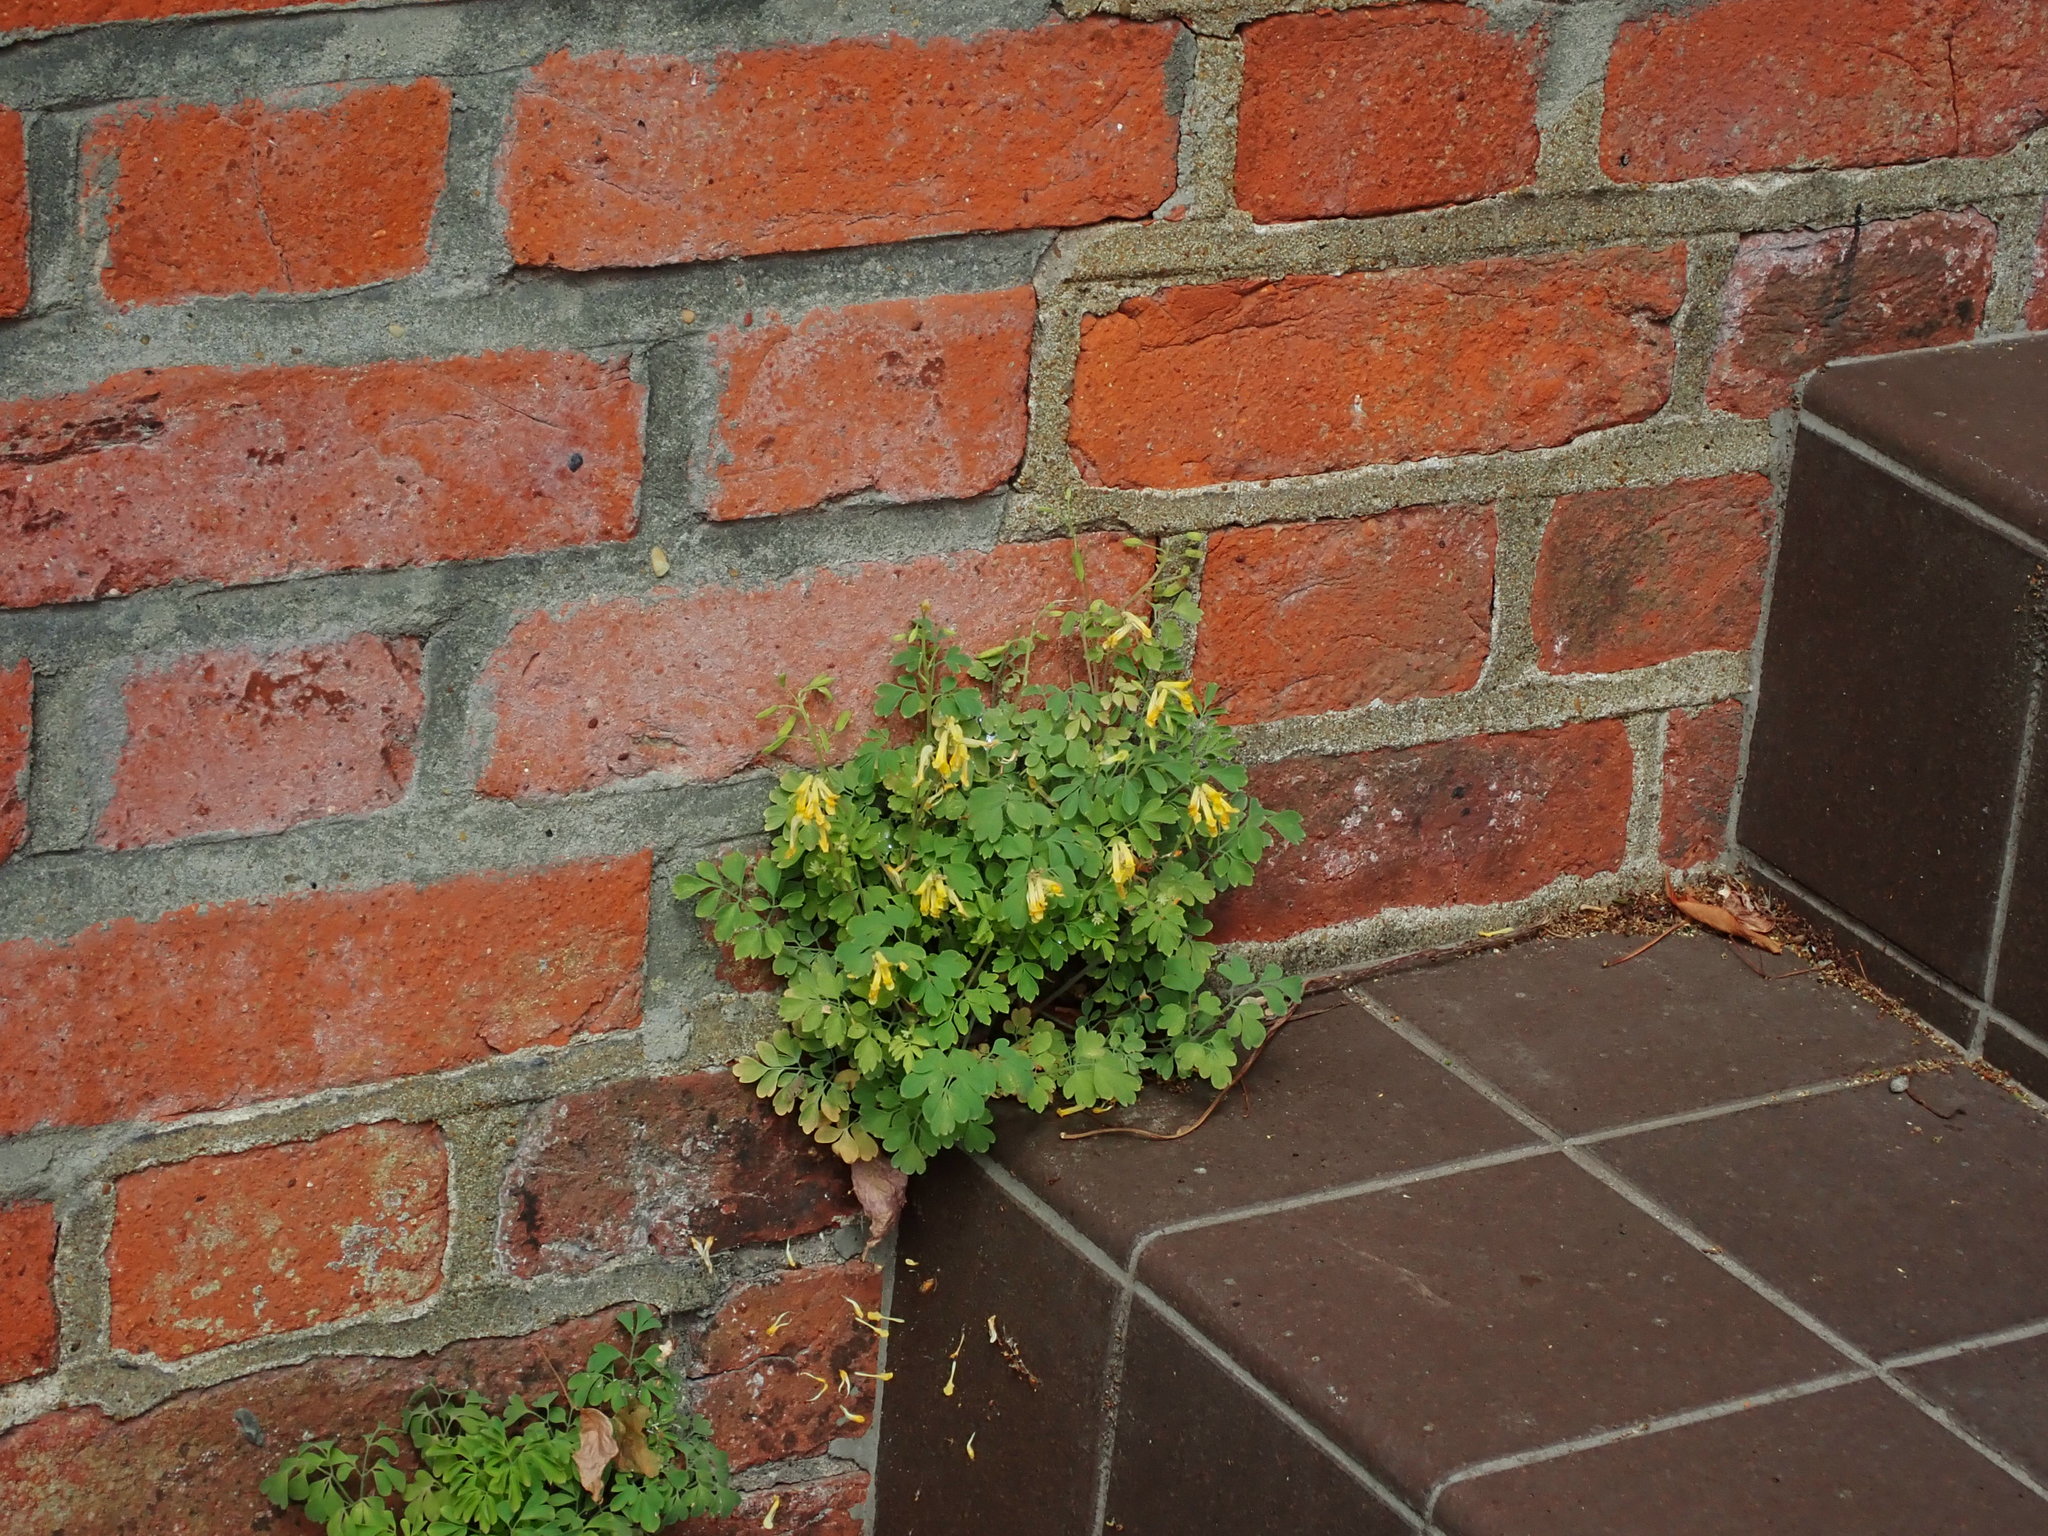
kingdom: Plantae
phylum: Tracheophyta
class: Magnoliopsida
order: Ranunculales
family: Papaveraceae
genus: Pseudofumaria
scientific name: Pseudofumaria lutea
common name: Yellow corydalis
